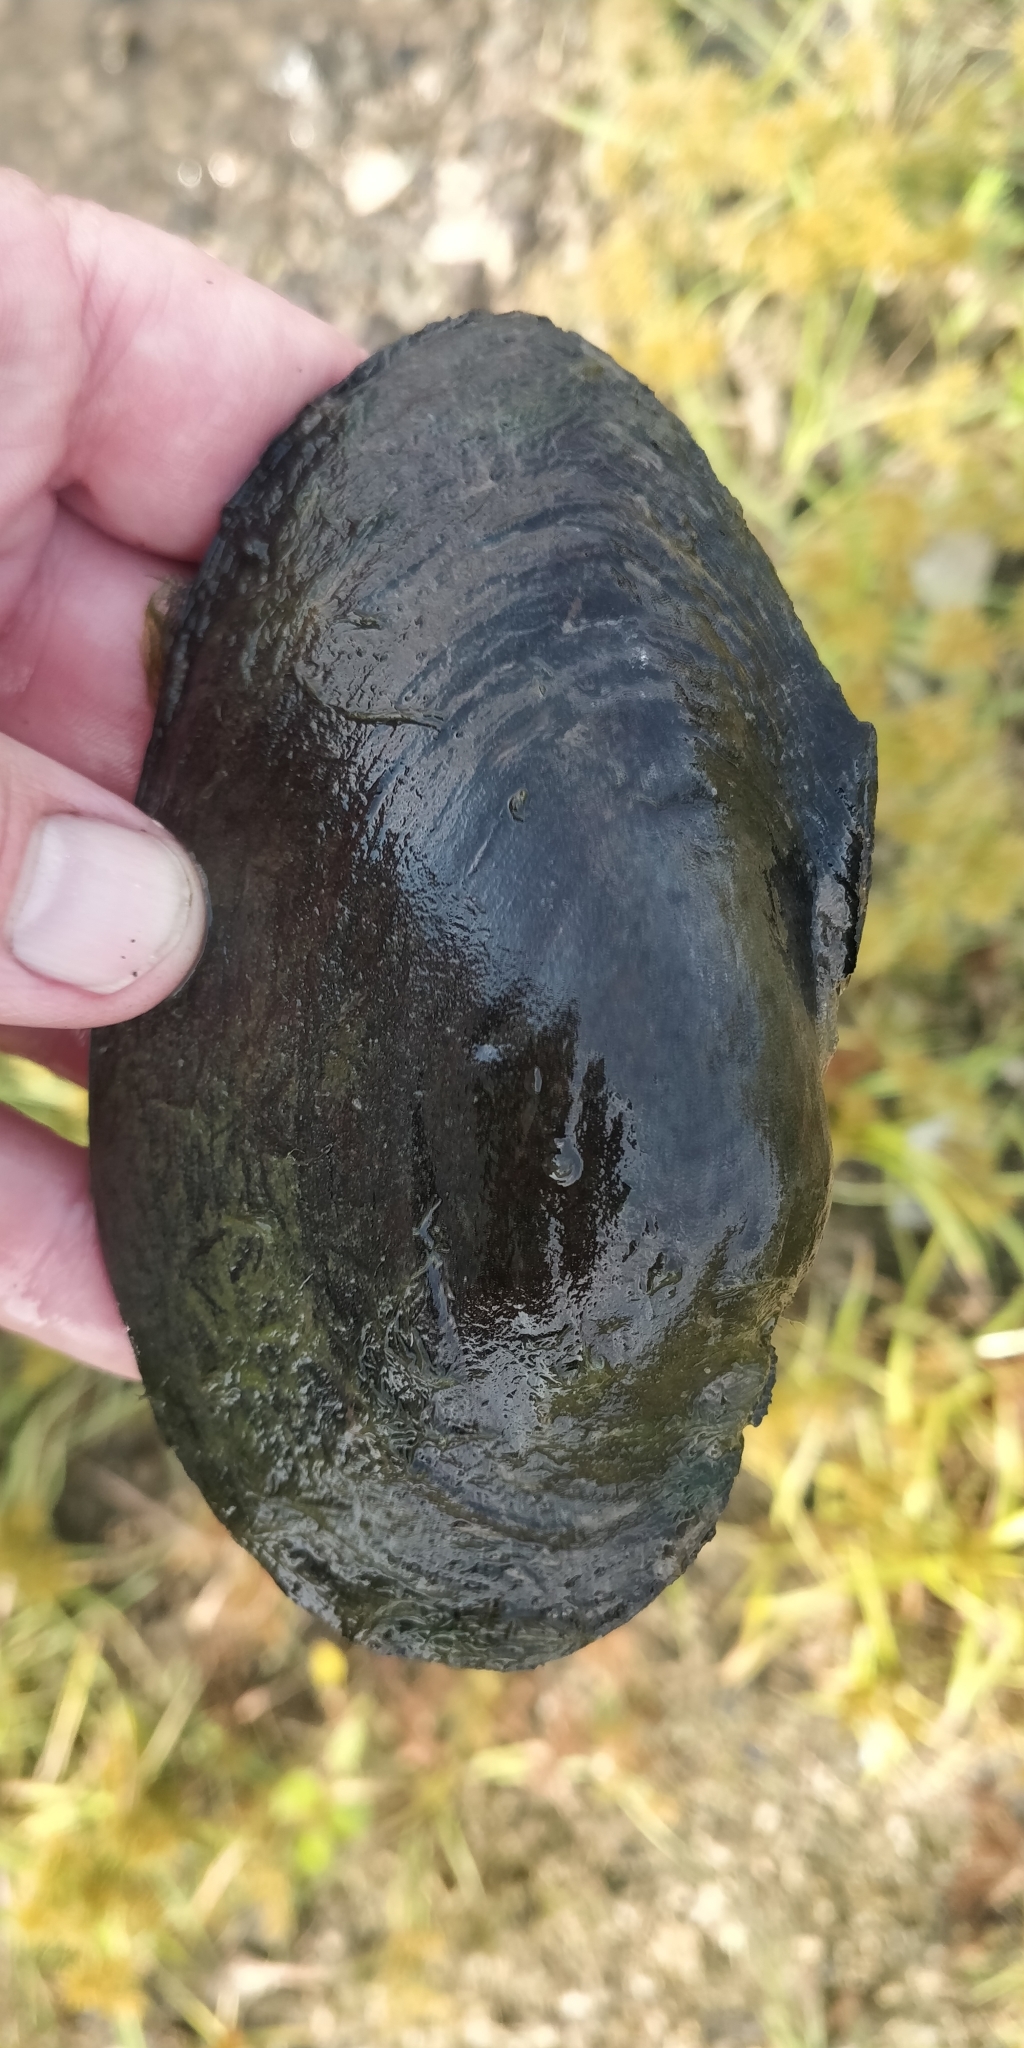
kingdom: Animalia
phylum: Mollusca
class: Bivalvia
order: Unionida
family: Unionidae
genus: Pyganodon
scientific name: Pyganodon grandis
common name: Giant floater
